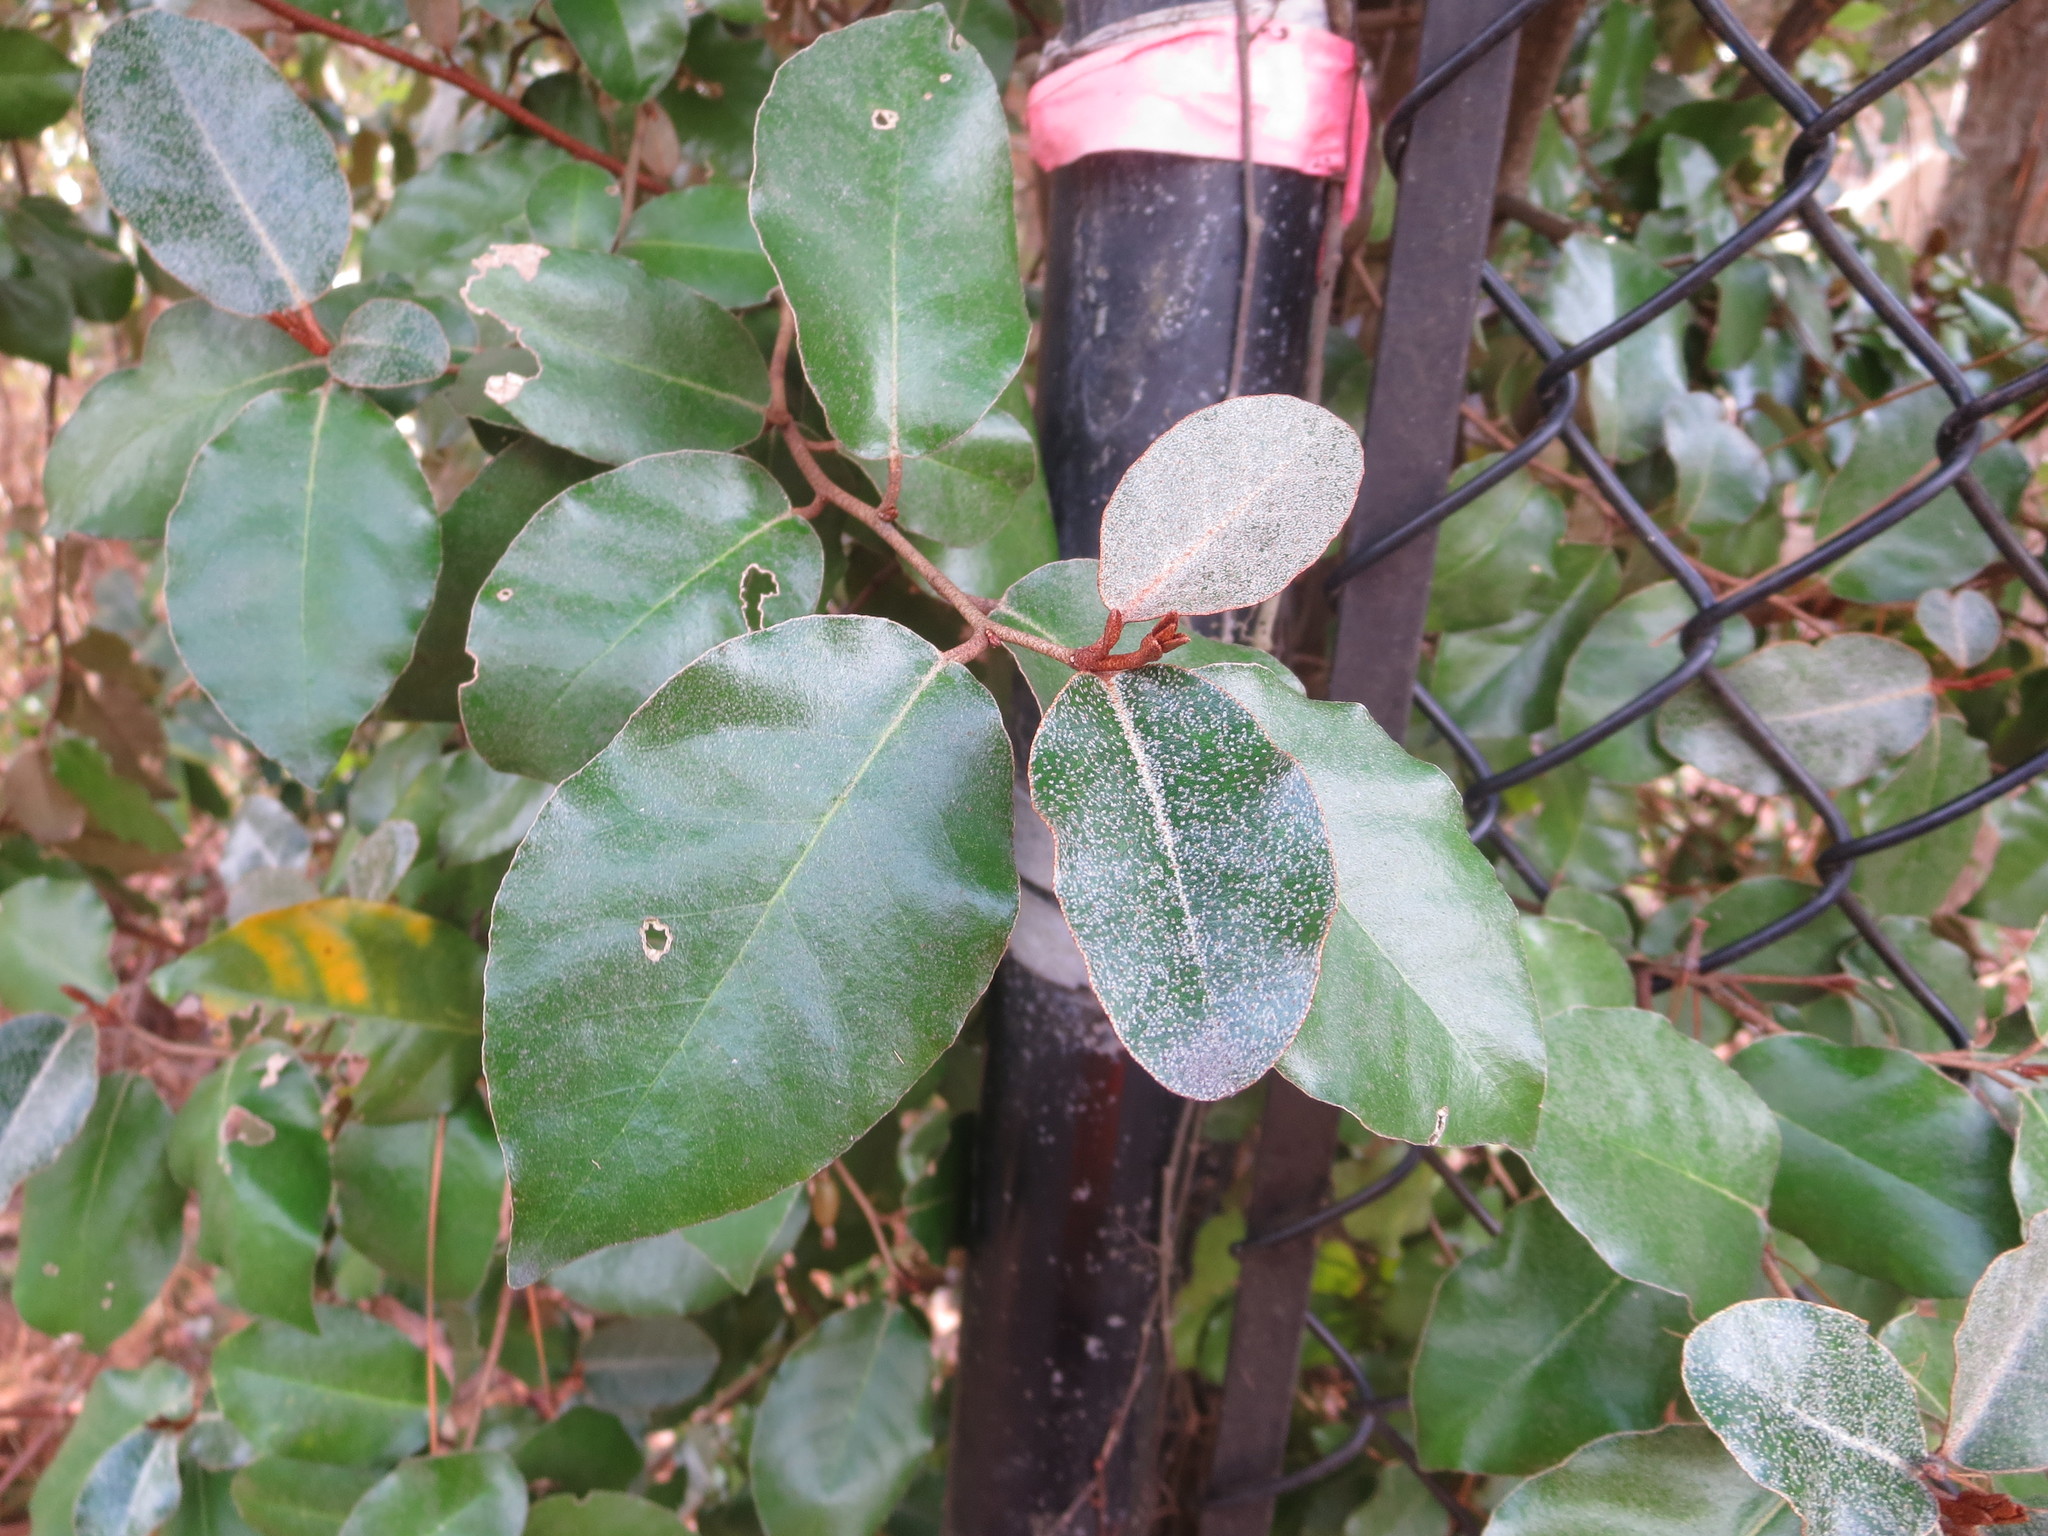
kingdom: Plantae
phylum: Tracheophyta
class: Magnoliopsida
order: Rosales
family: Elaeagnaceae
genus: Elaeagnus
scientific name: Elaeagnus pungens
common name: Spiny oleaster
